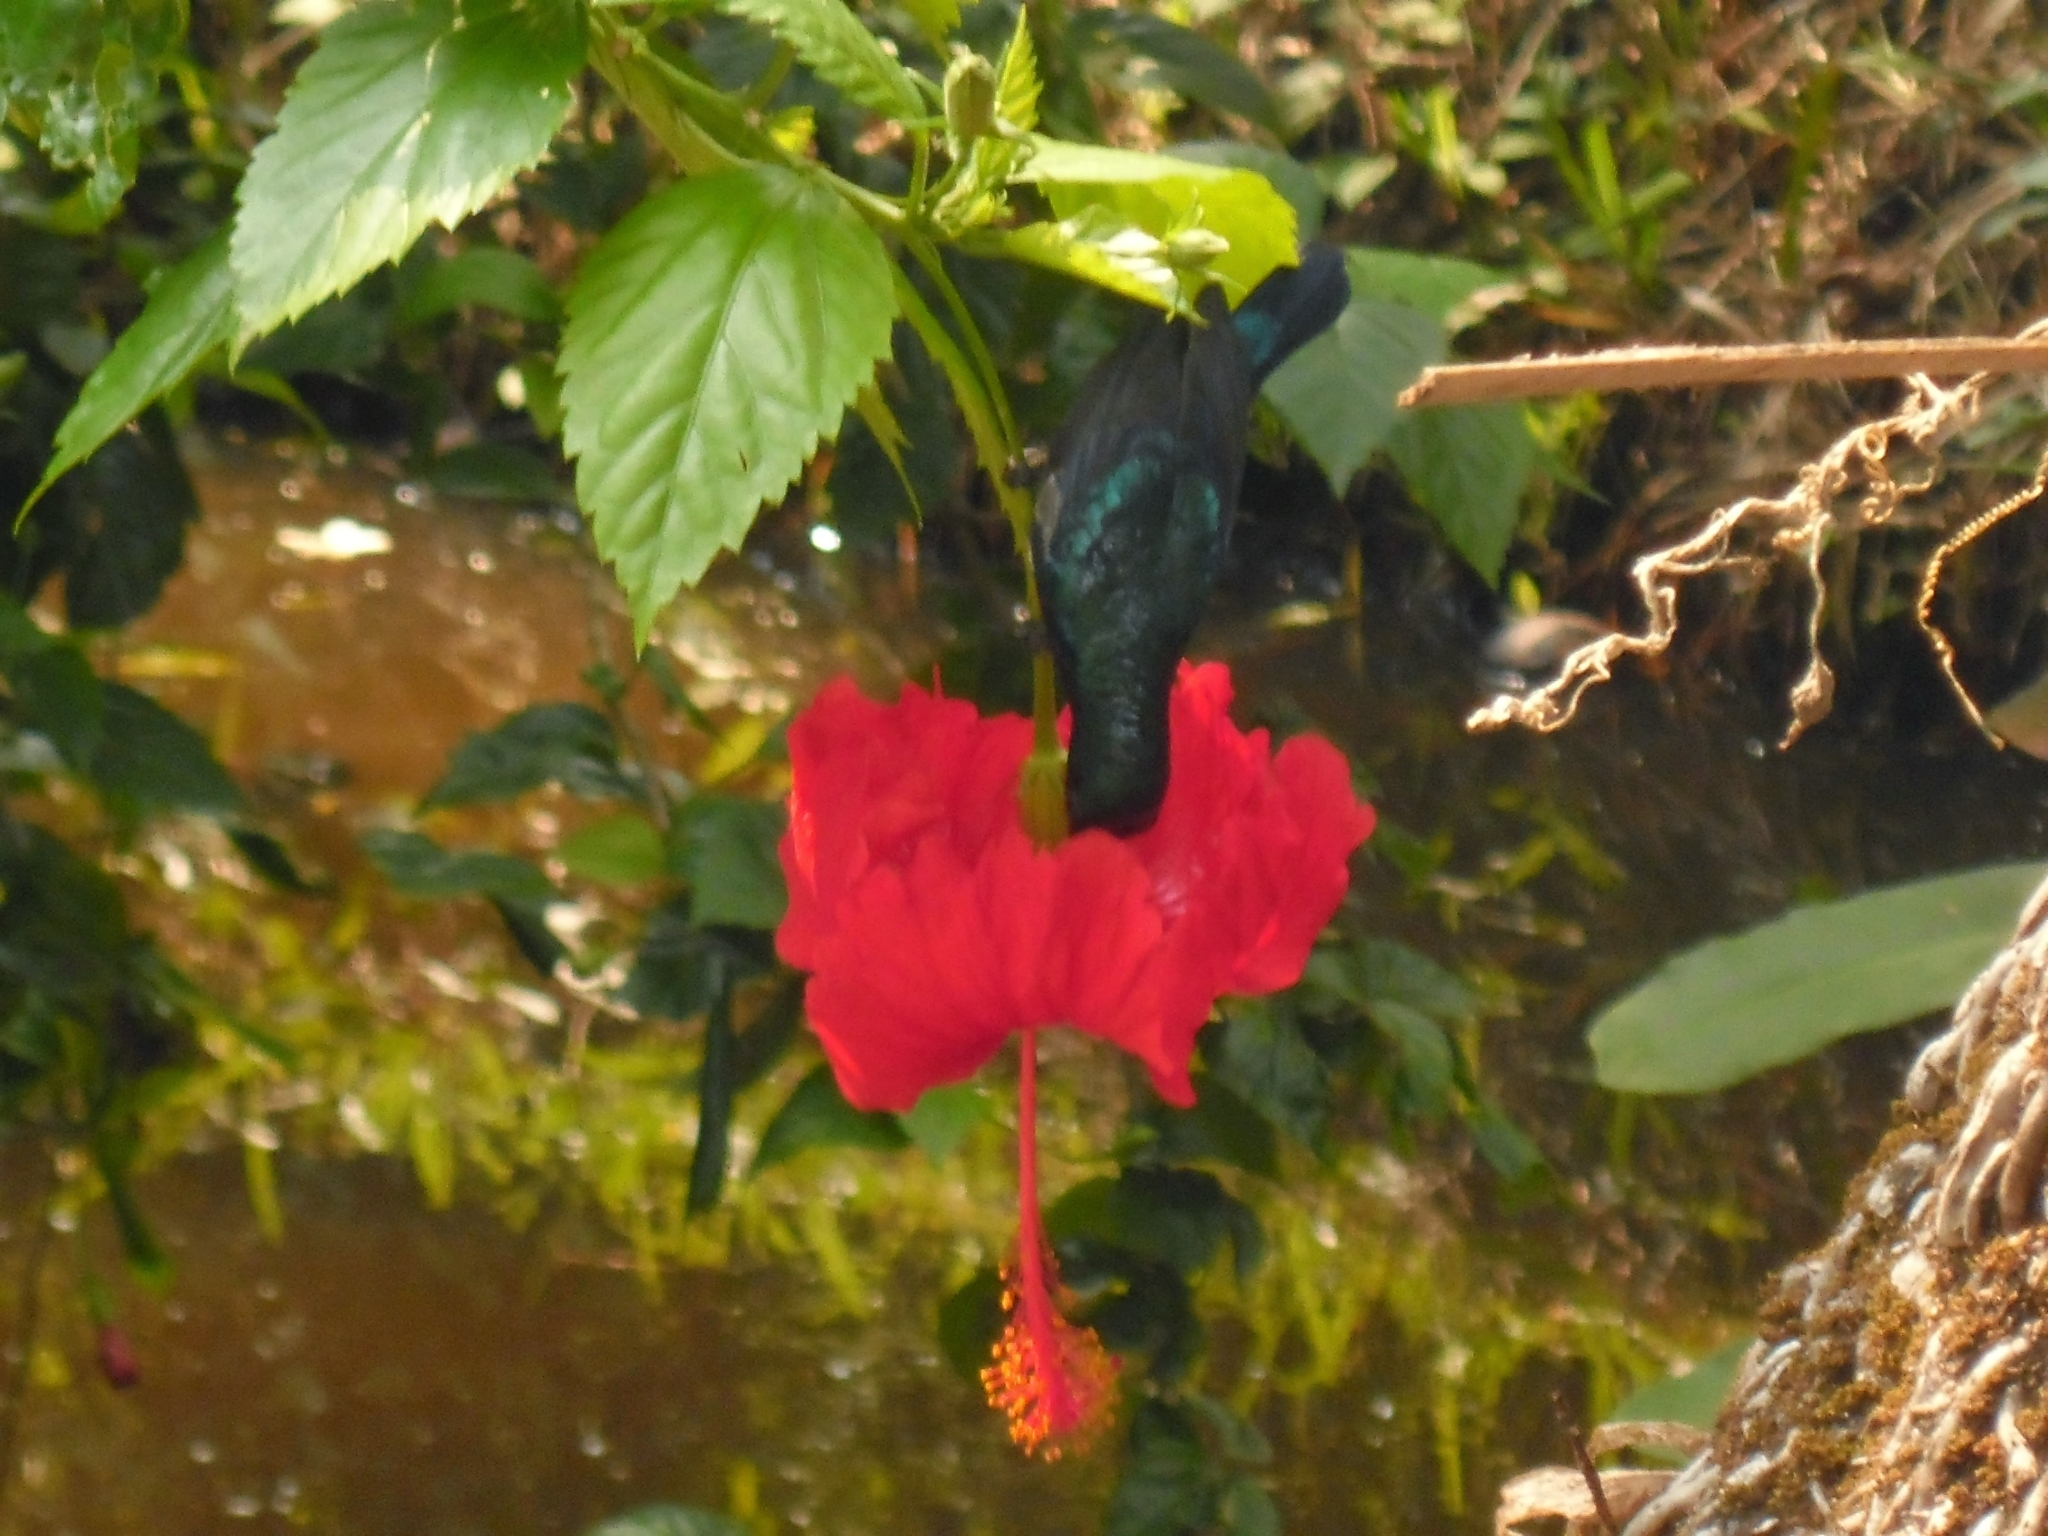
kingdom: Animalia
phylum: Chordata
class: Aves
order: Passeriformes
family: Nectariniidae
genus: Cinnyris
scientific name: Cinnyris lotenius
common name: Loten's sunbird
